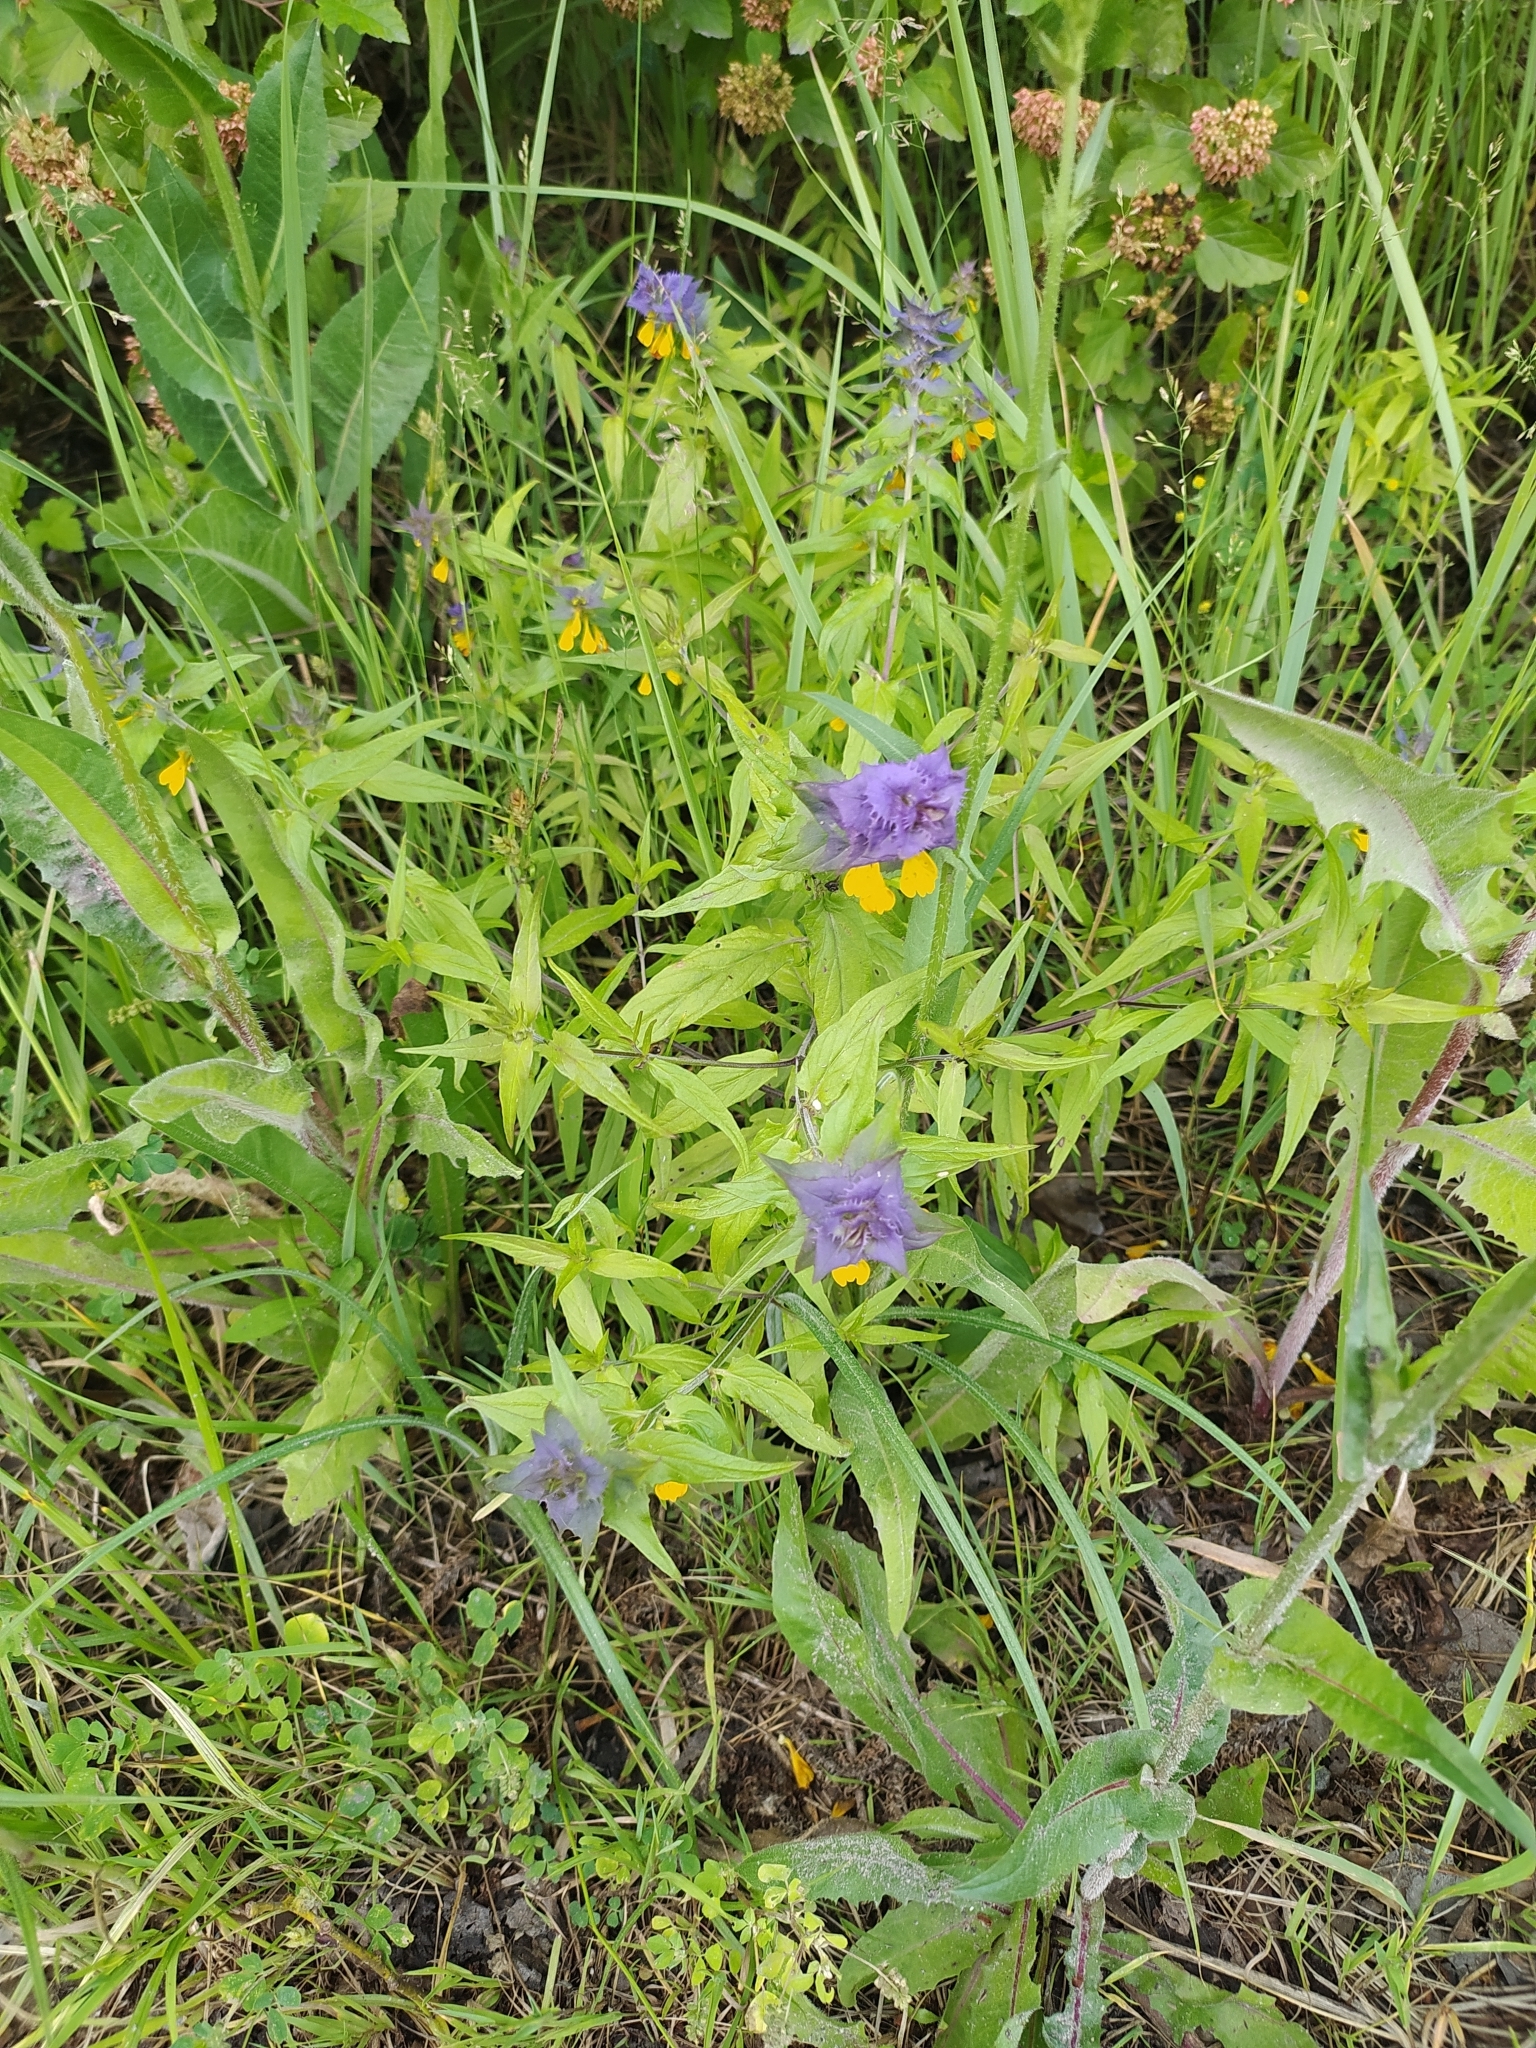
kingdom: Plantae
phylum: Tracheophyta
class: Magnoliopsida
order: Lamiales
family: Orobanchaceae
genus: Melampyrum
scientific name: Melampyrum nemorosum
